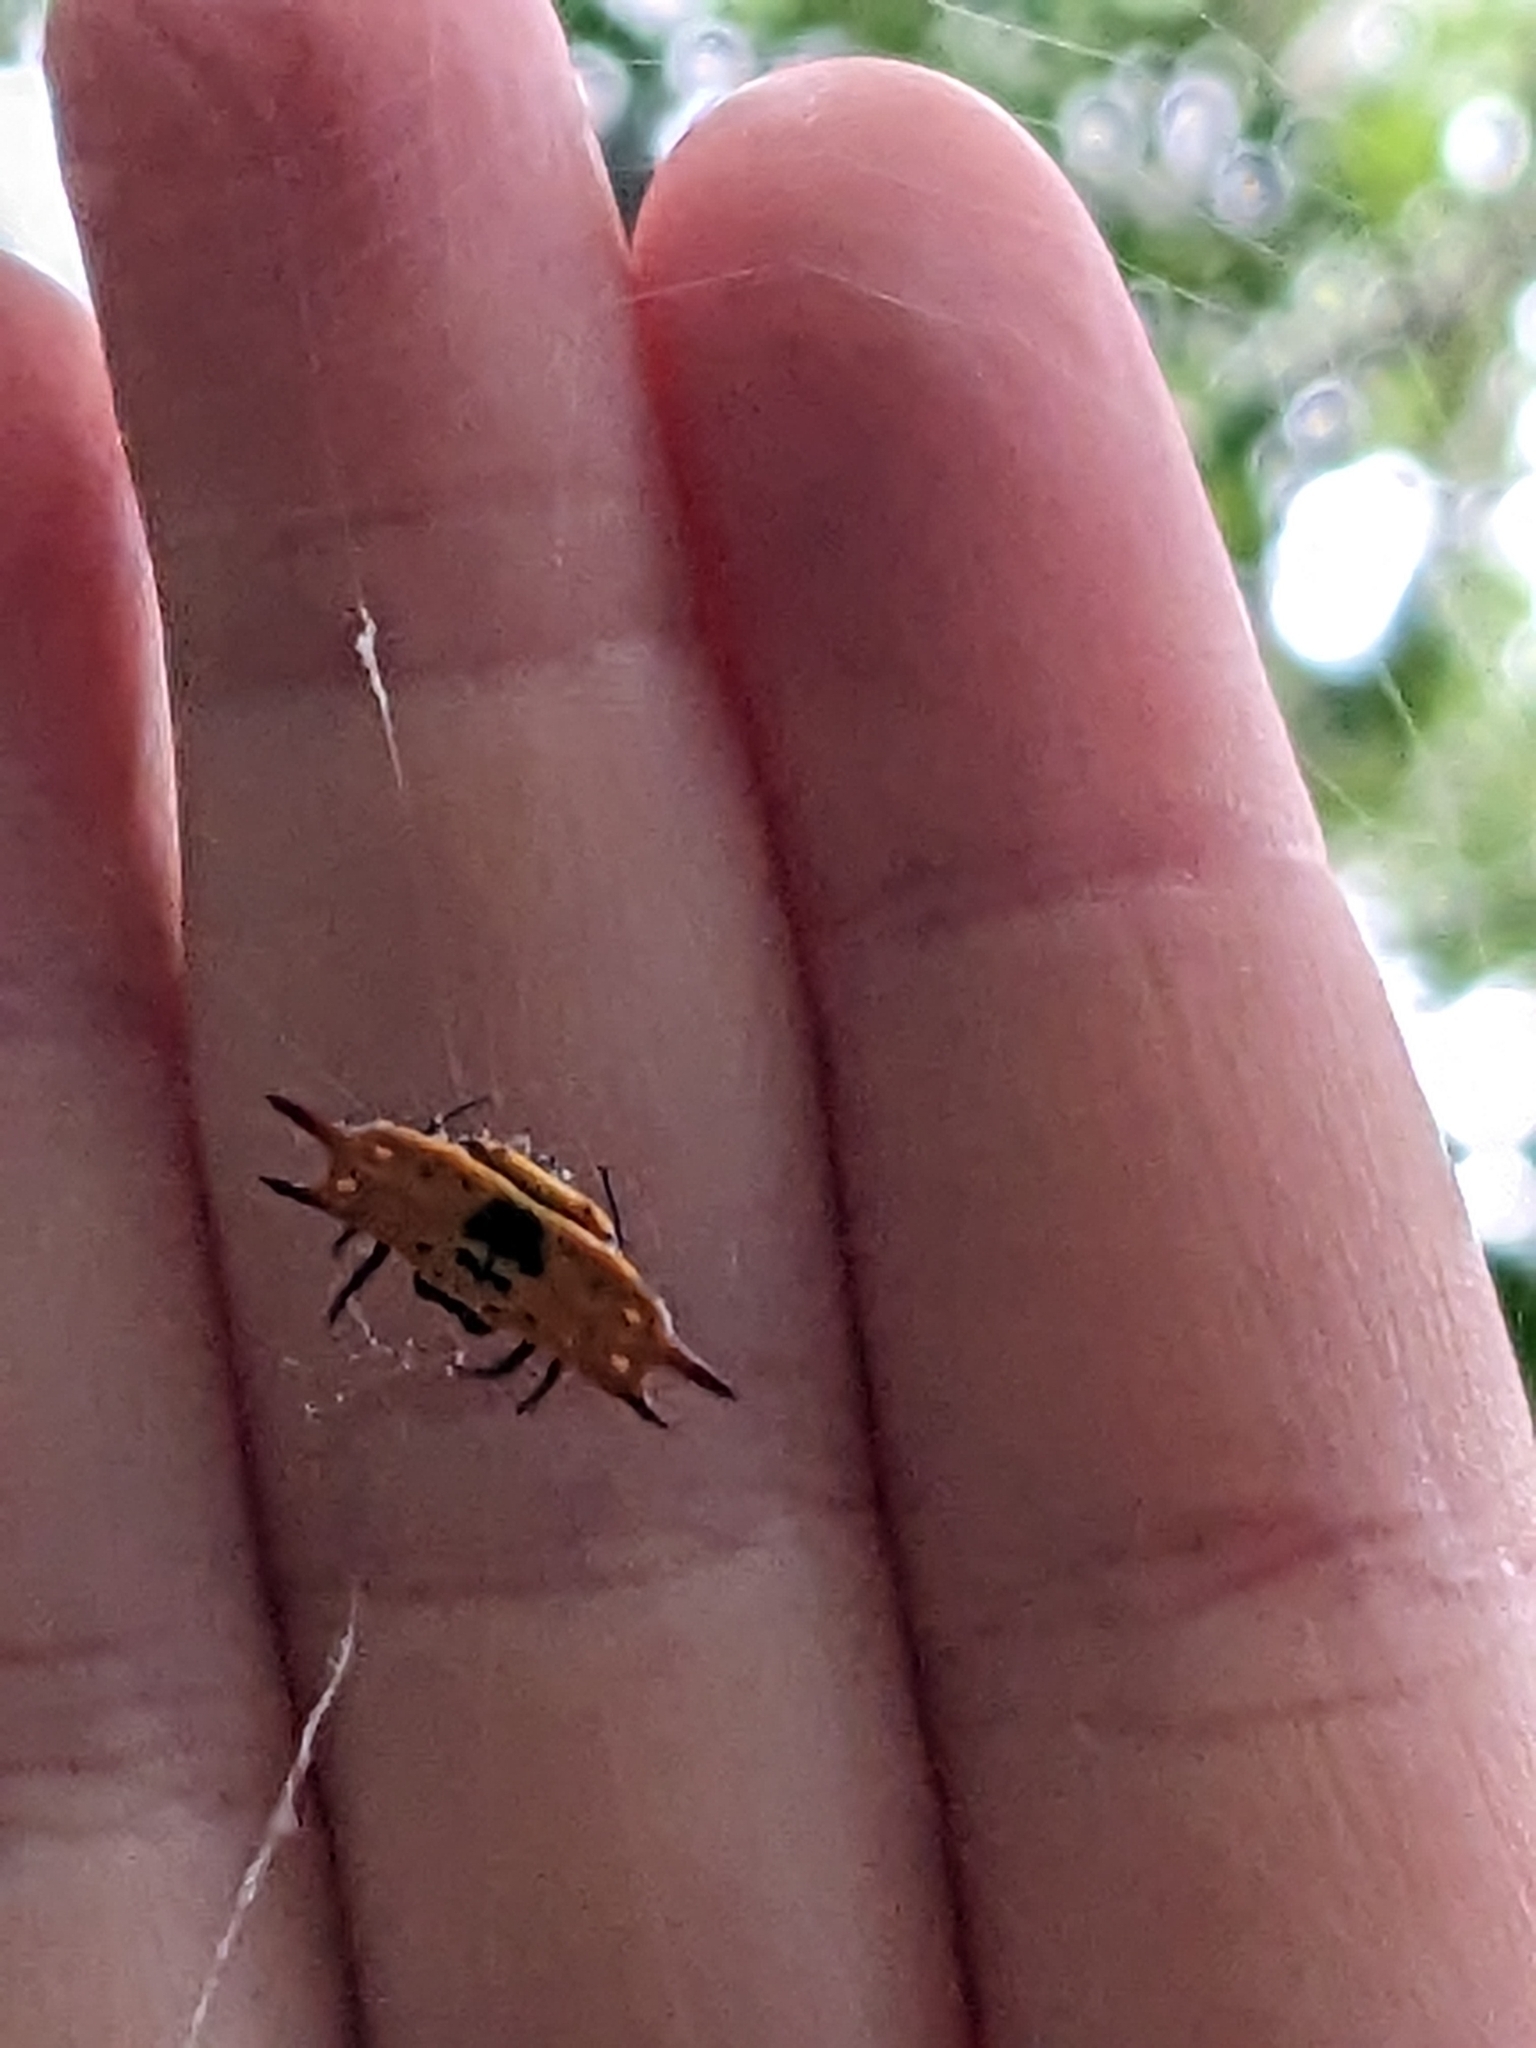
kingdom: Animalia
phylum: Arthropoda
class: Arachnida
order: Araneae
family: Araneidae
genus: Gasteracantha
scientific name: Gasteracantha quadrispinosa
